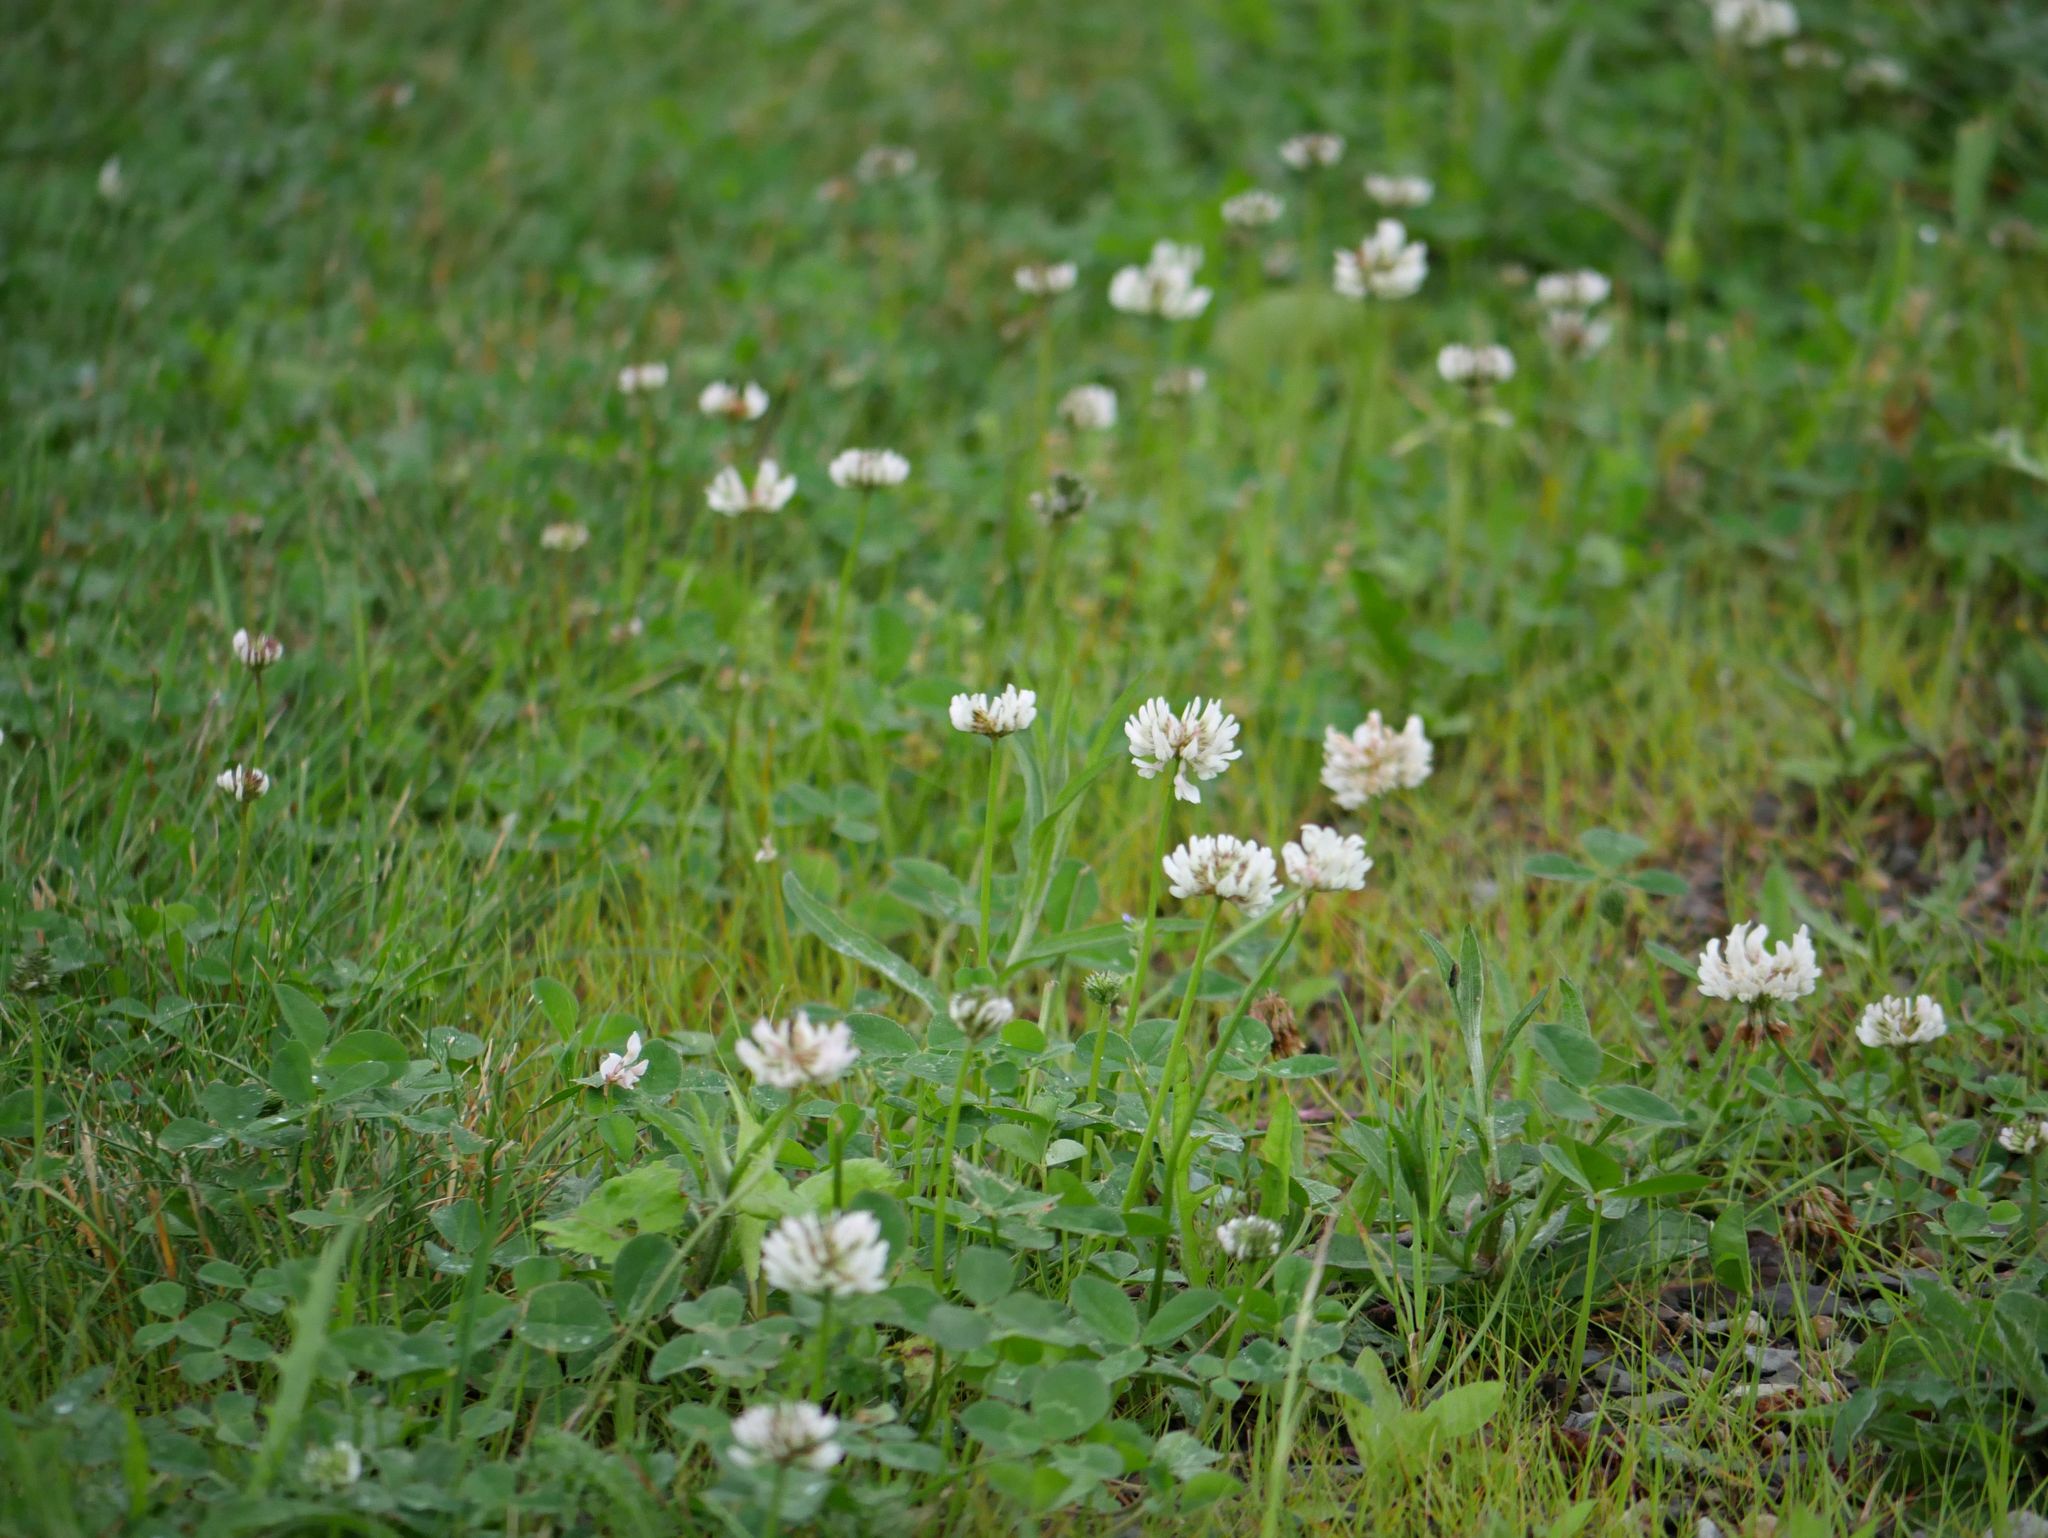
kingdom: Plantae
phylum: Tracheophyta
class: Magnoliopsida
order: Fabales
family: Fabaceae
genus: Trifolium
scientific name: Trifolium repens
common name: White clover
